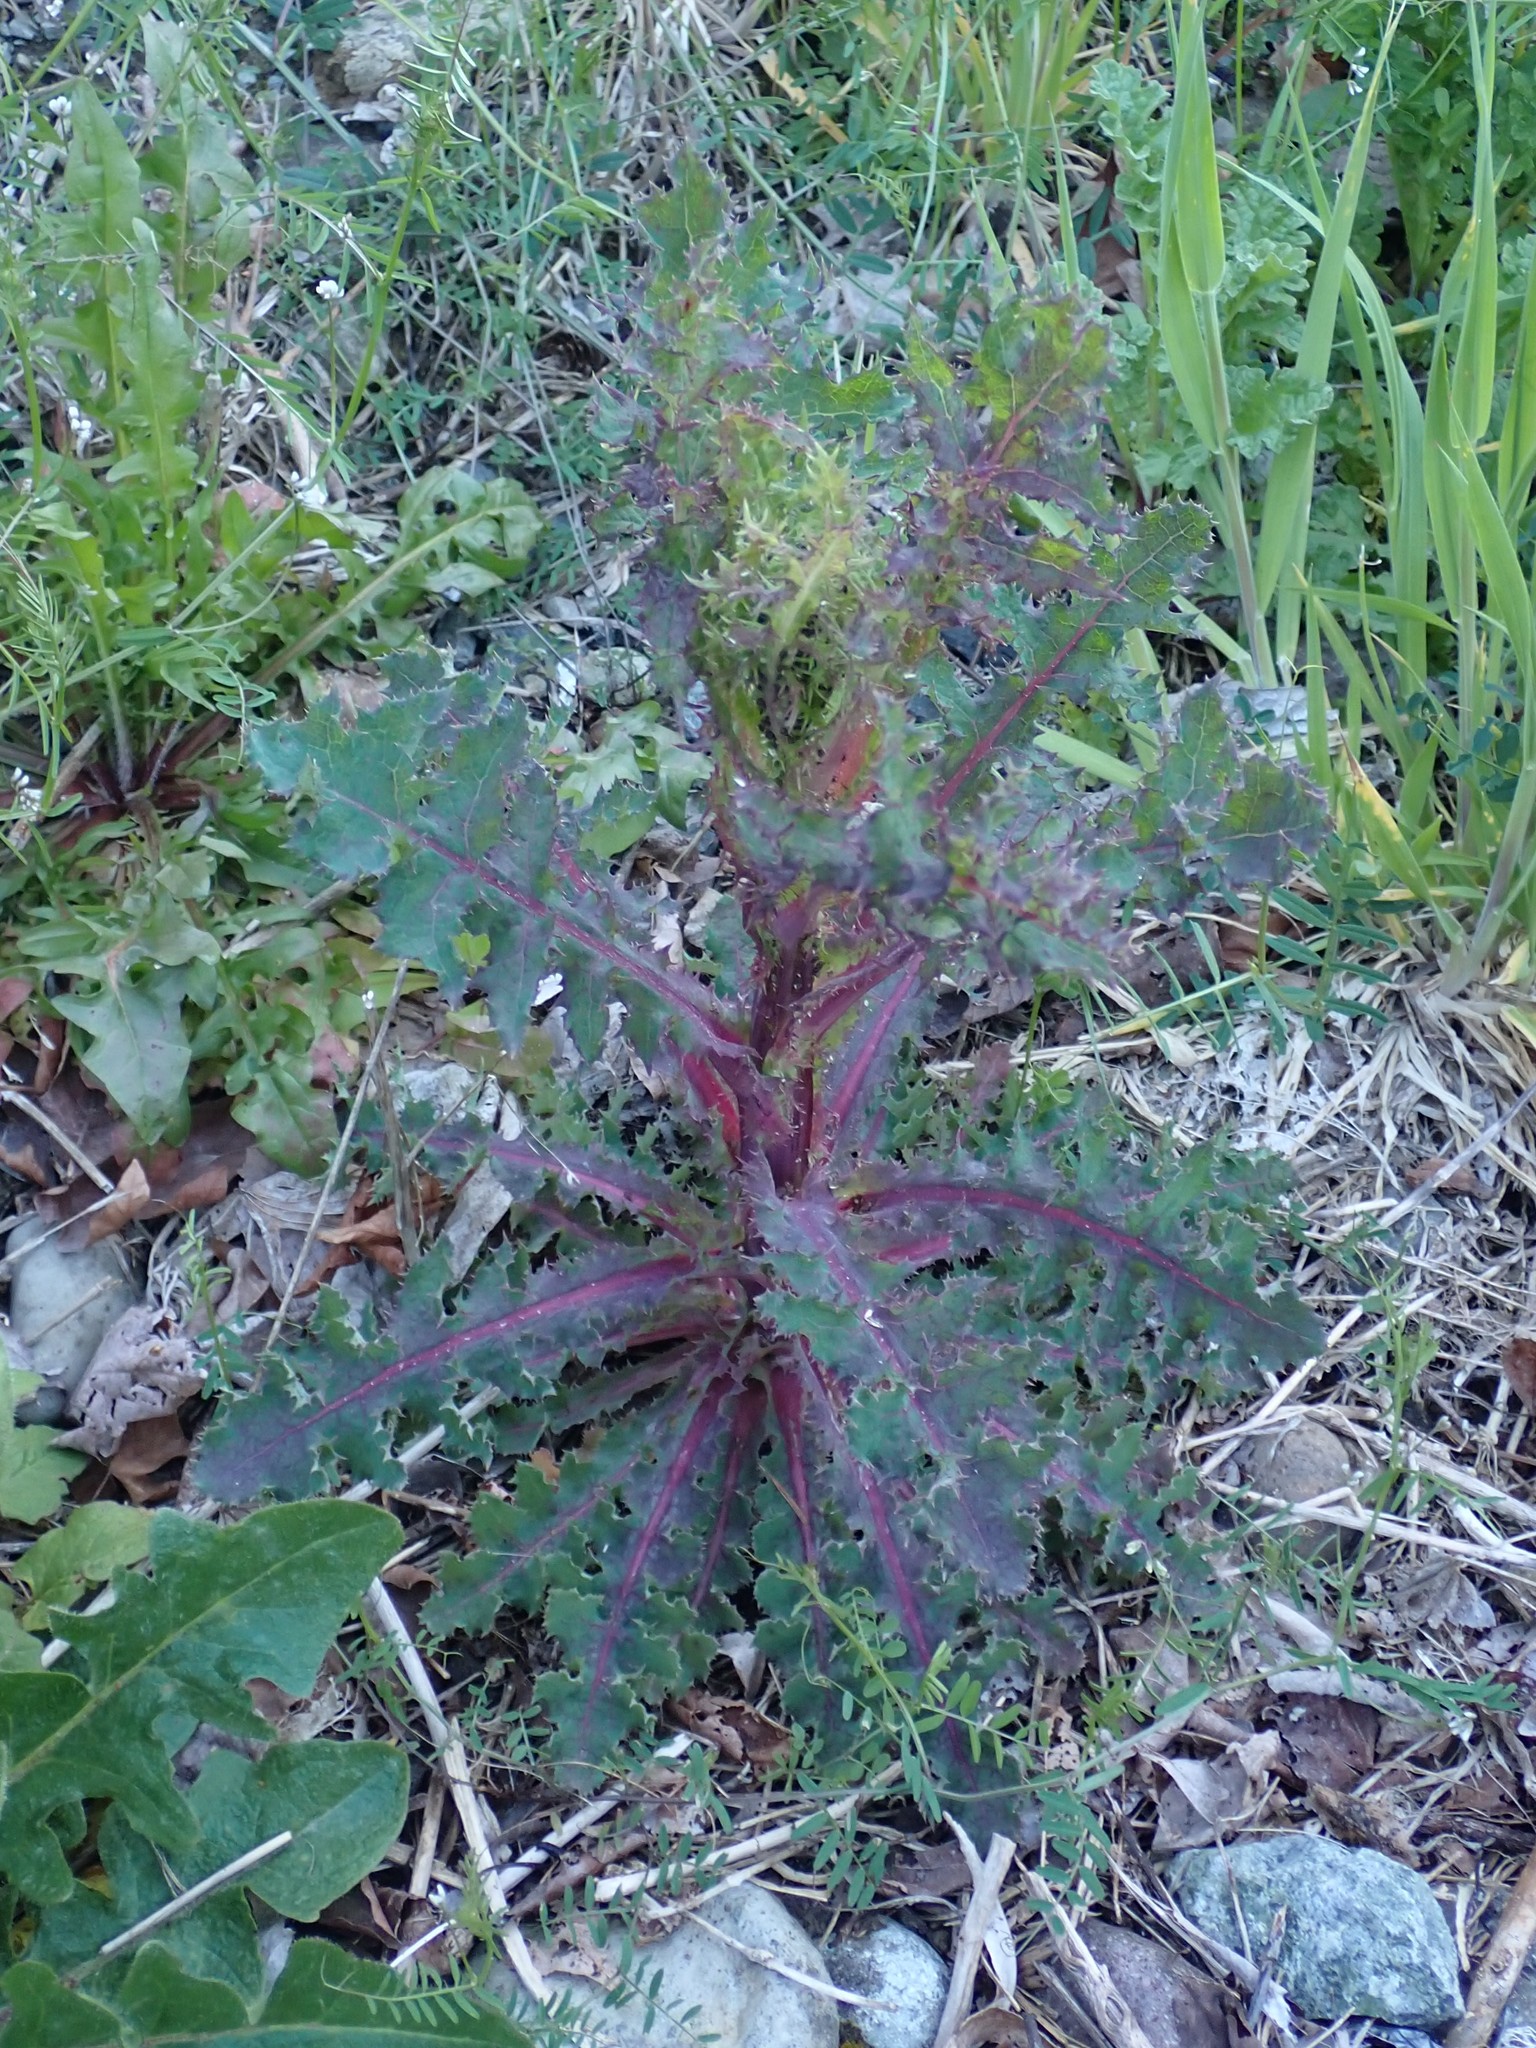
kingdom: Plantae
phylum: Tracheophyta
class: Magnoliopsida
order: Asterales
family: Asteraceae
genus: Sonchus
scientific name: Sonchus oleraceus
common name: Common sowthistle
